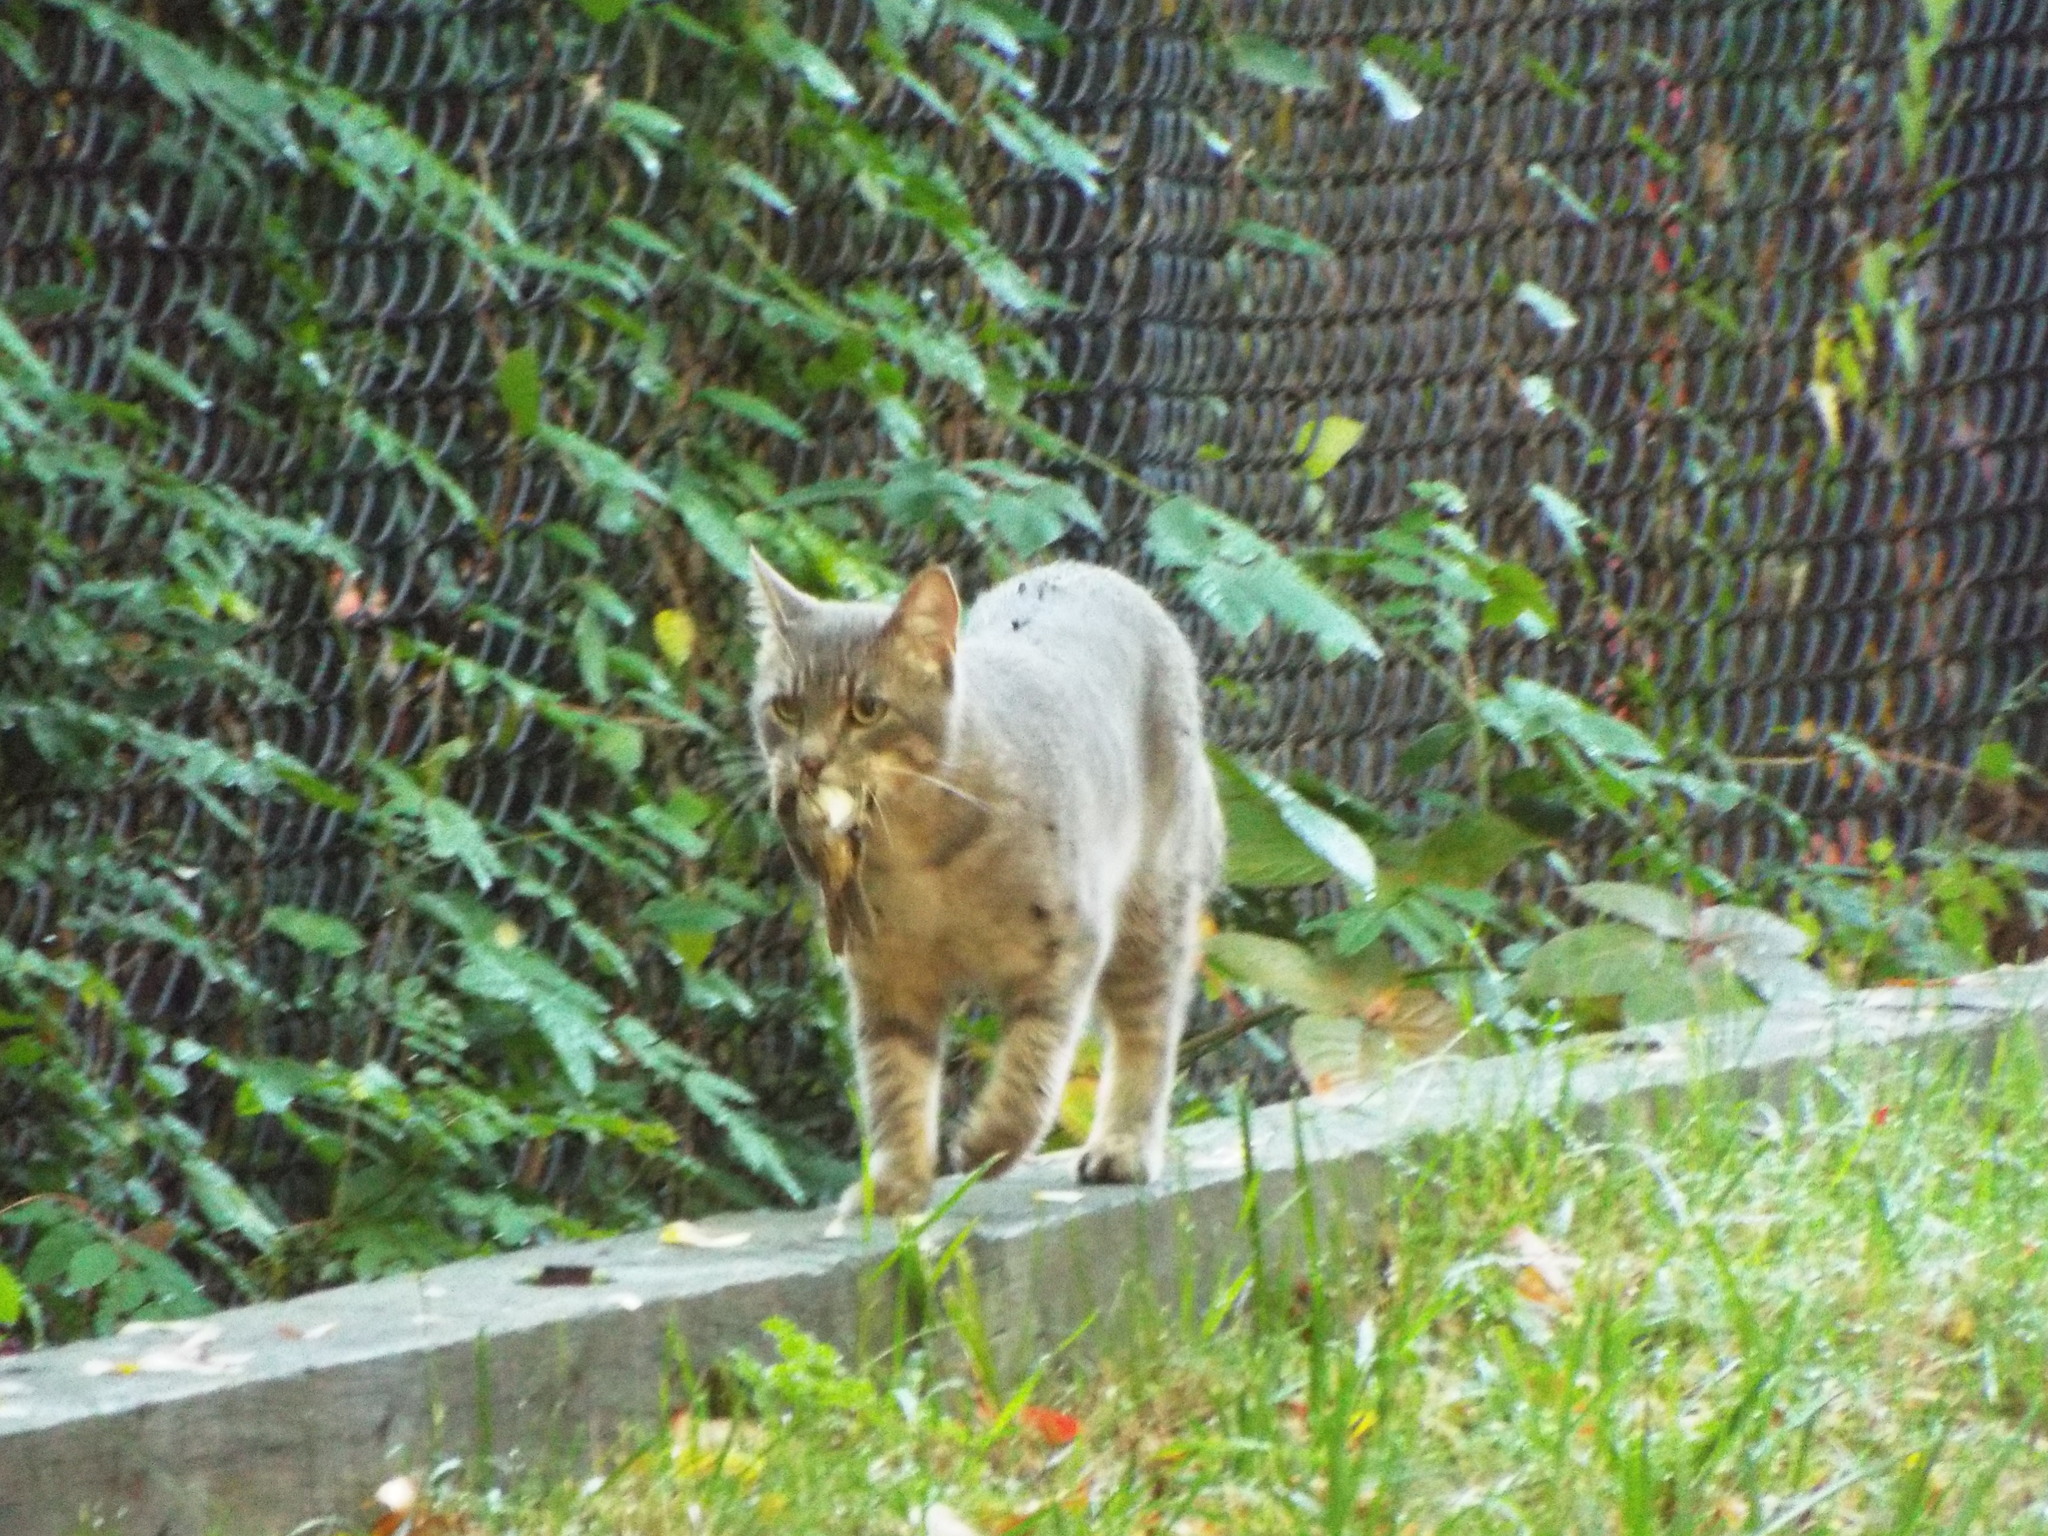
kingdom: Animalia
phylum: Chordata
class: Mammalia
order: Carnivora
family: Felidae
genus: Felis
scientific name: Felis catus
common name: Domestic cat
